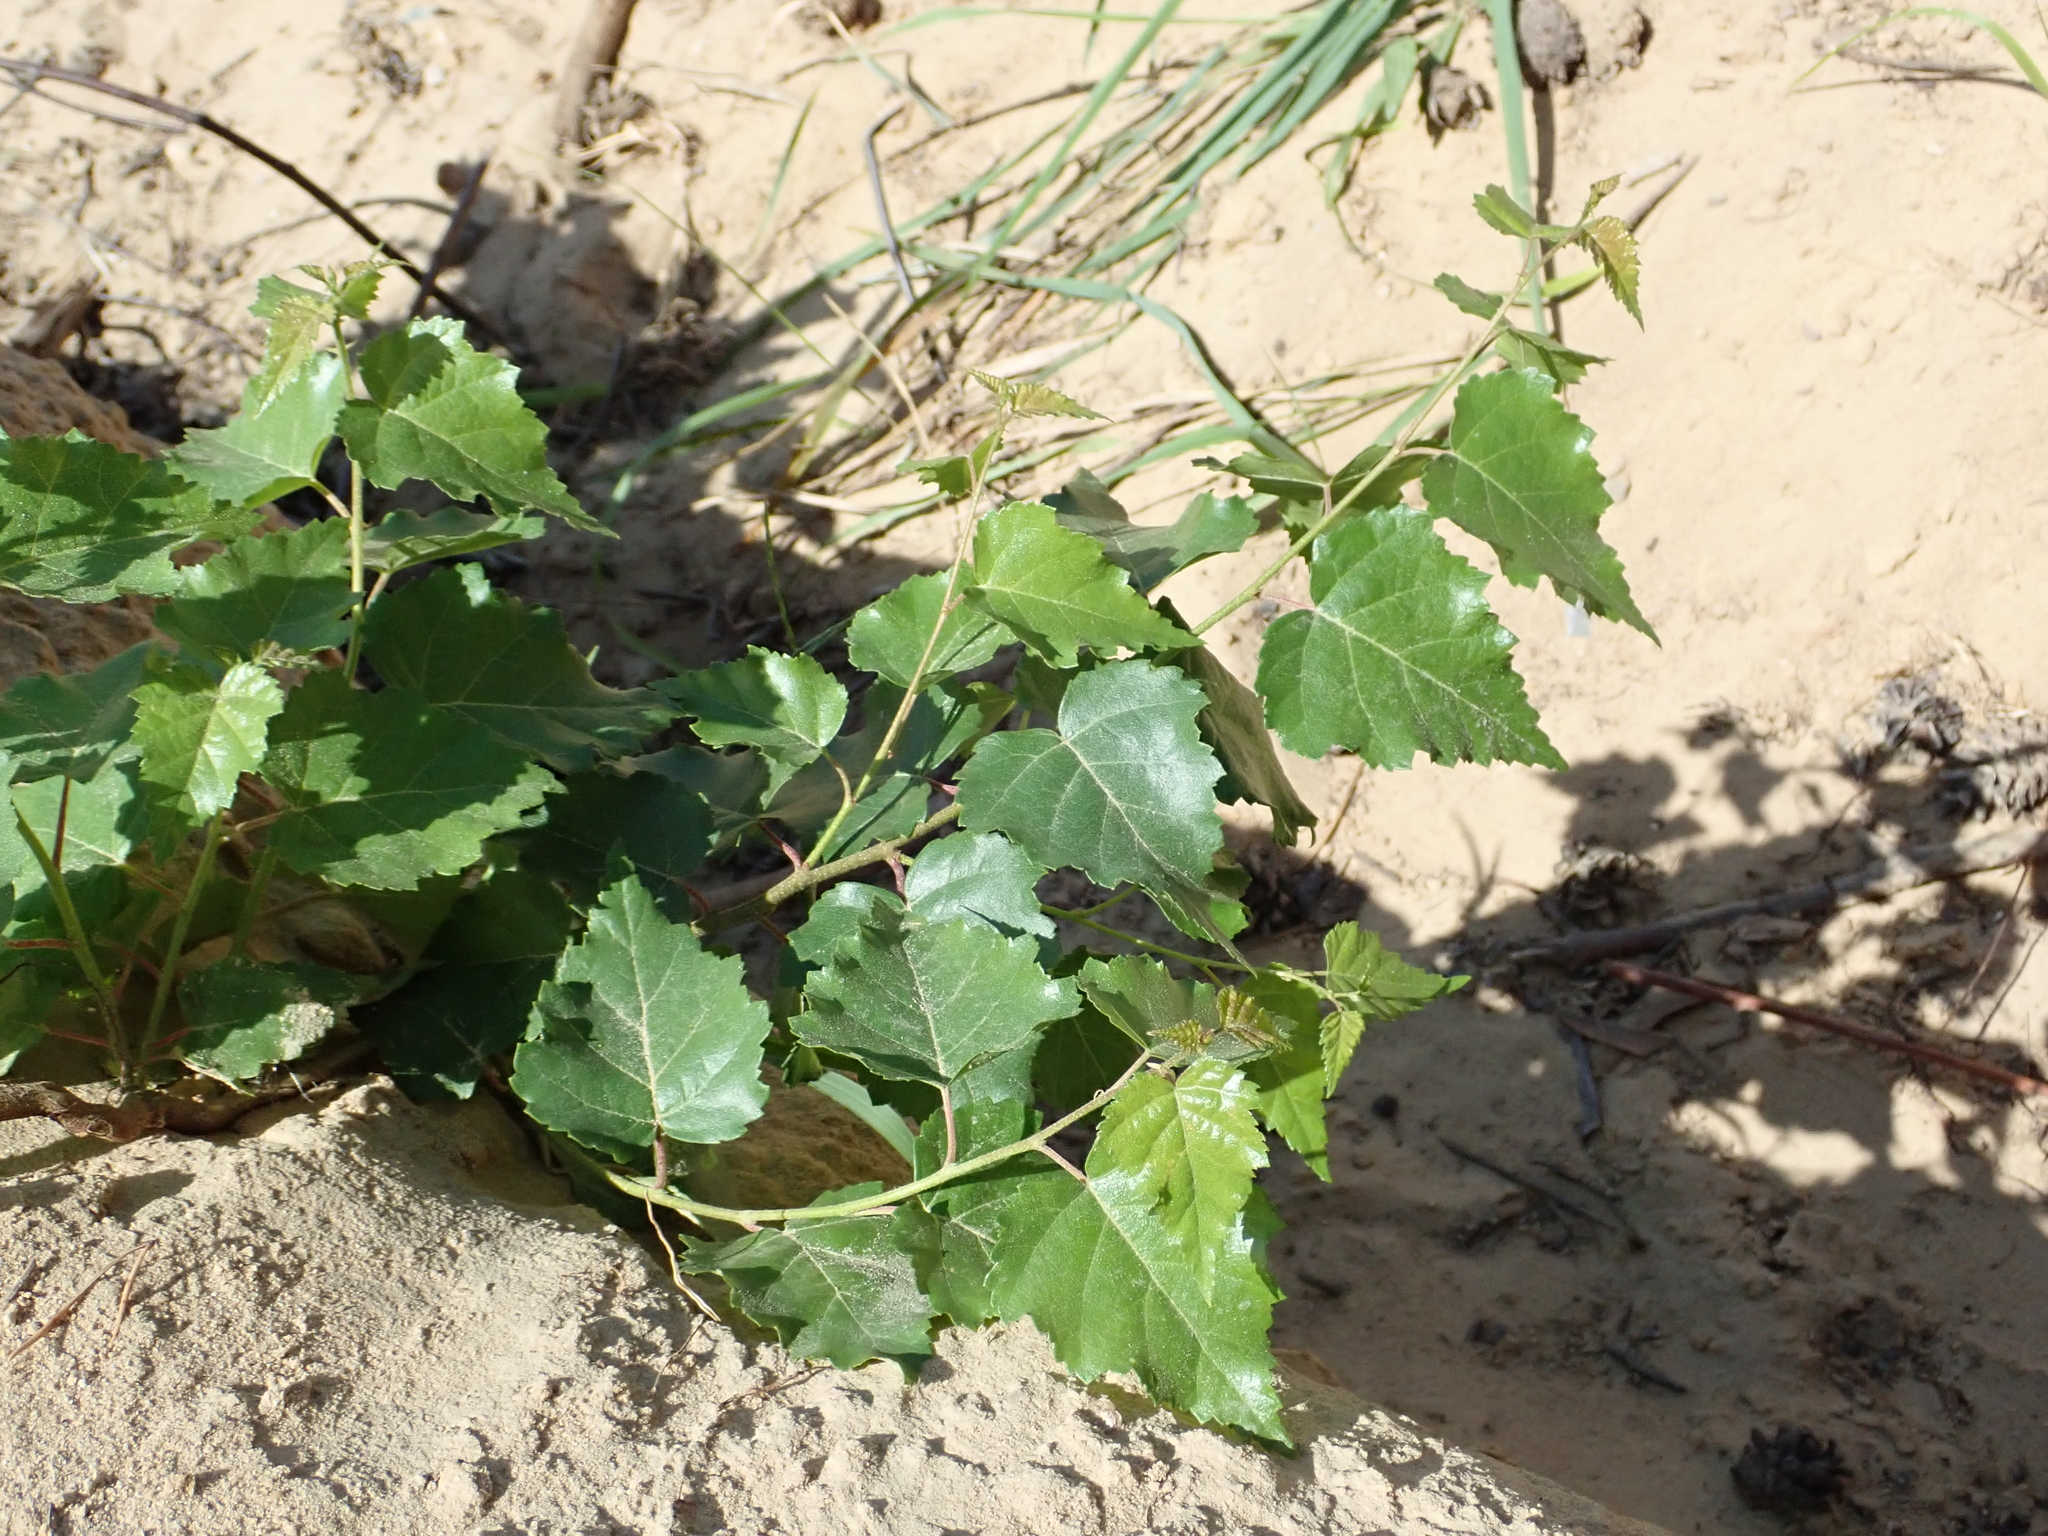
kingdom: Plantae
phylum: Tracheophyta
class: Magnoliopsida
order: Fagales
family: Betulaceae
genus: Betula
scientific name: Betula pendula
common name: Silver birch
